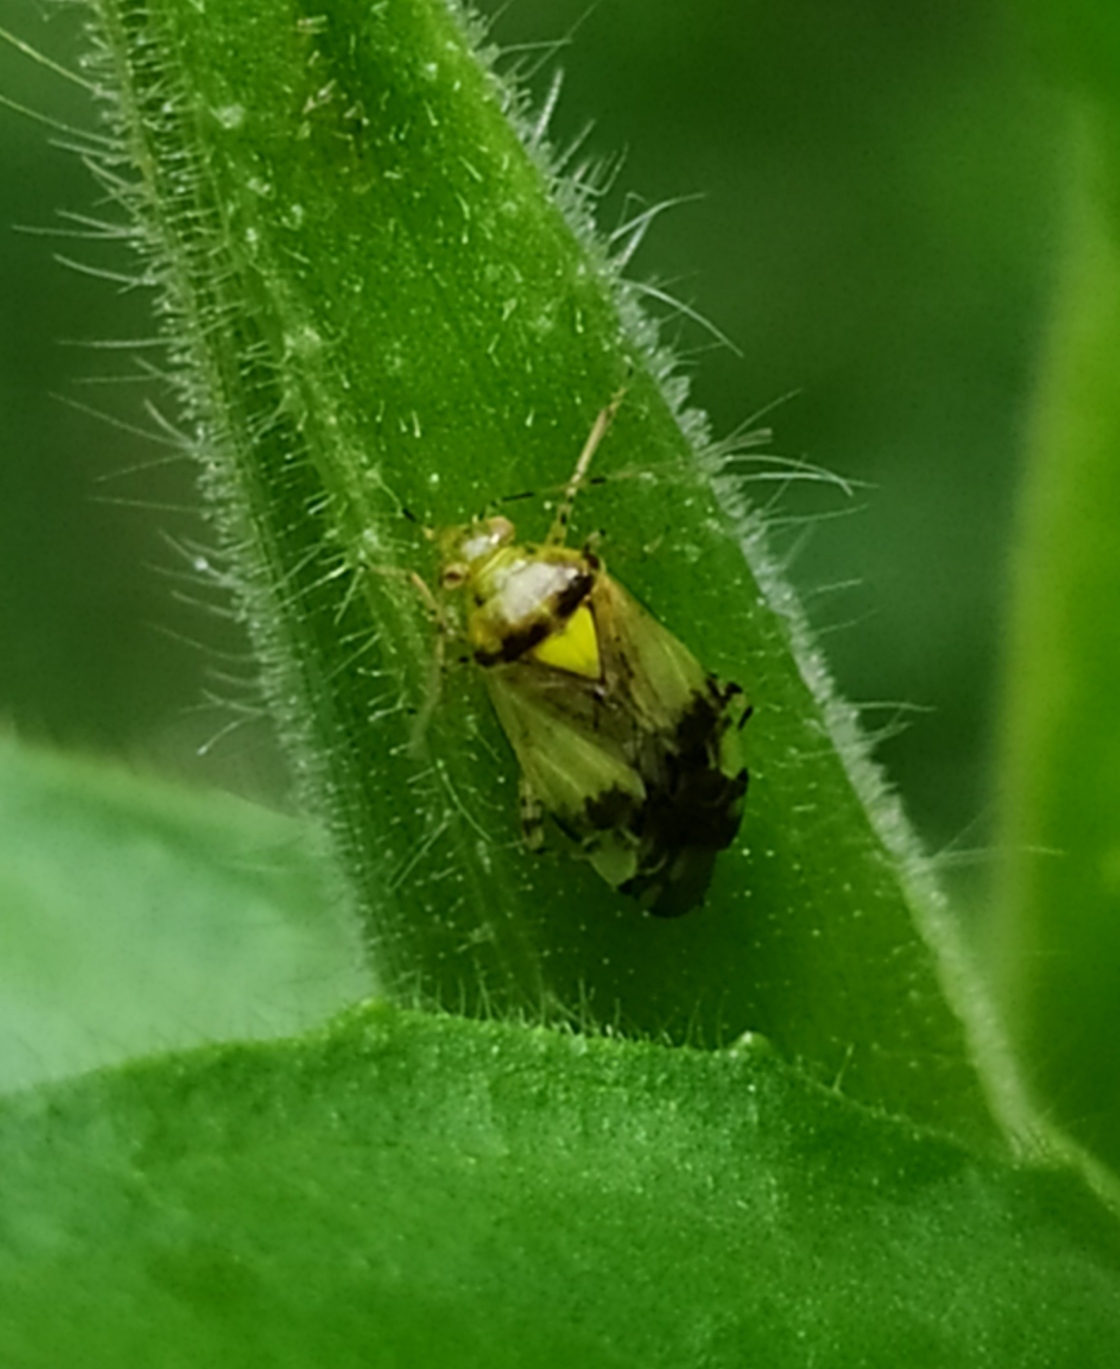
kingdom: Animalia
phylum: Arthropoda
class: Insecta
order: Hemiptera
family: Miridae
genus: Liocoris
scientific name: Liocoris tripustulatus
